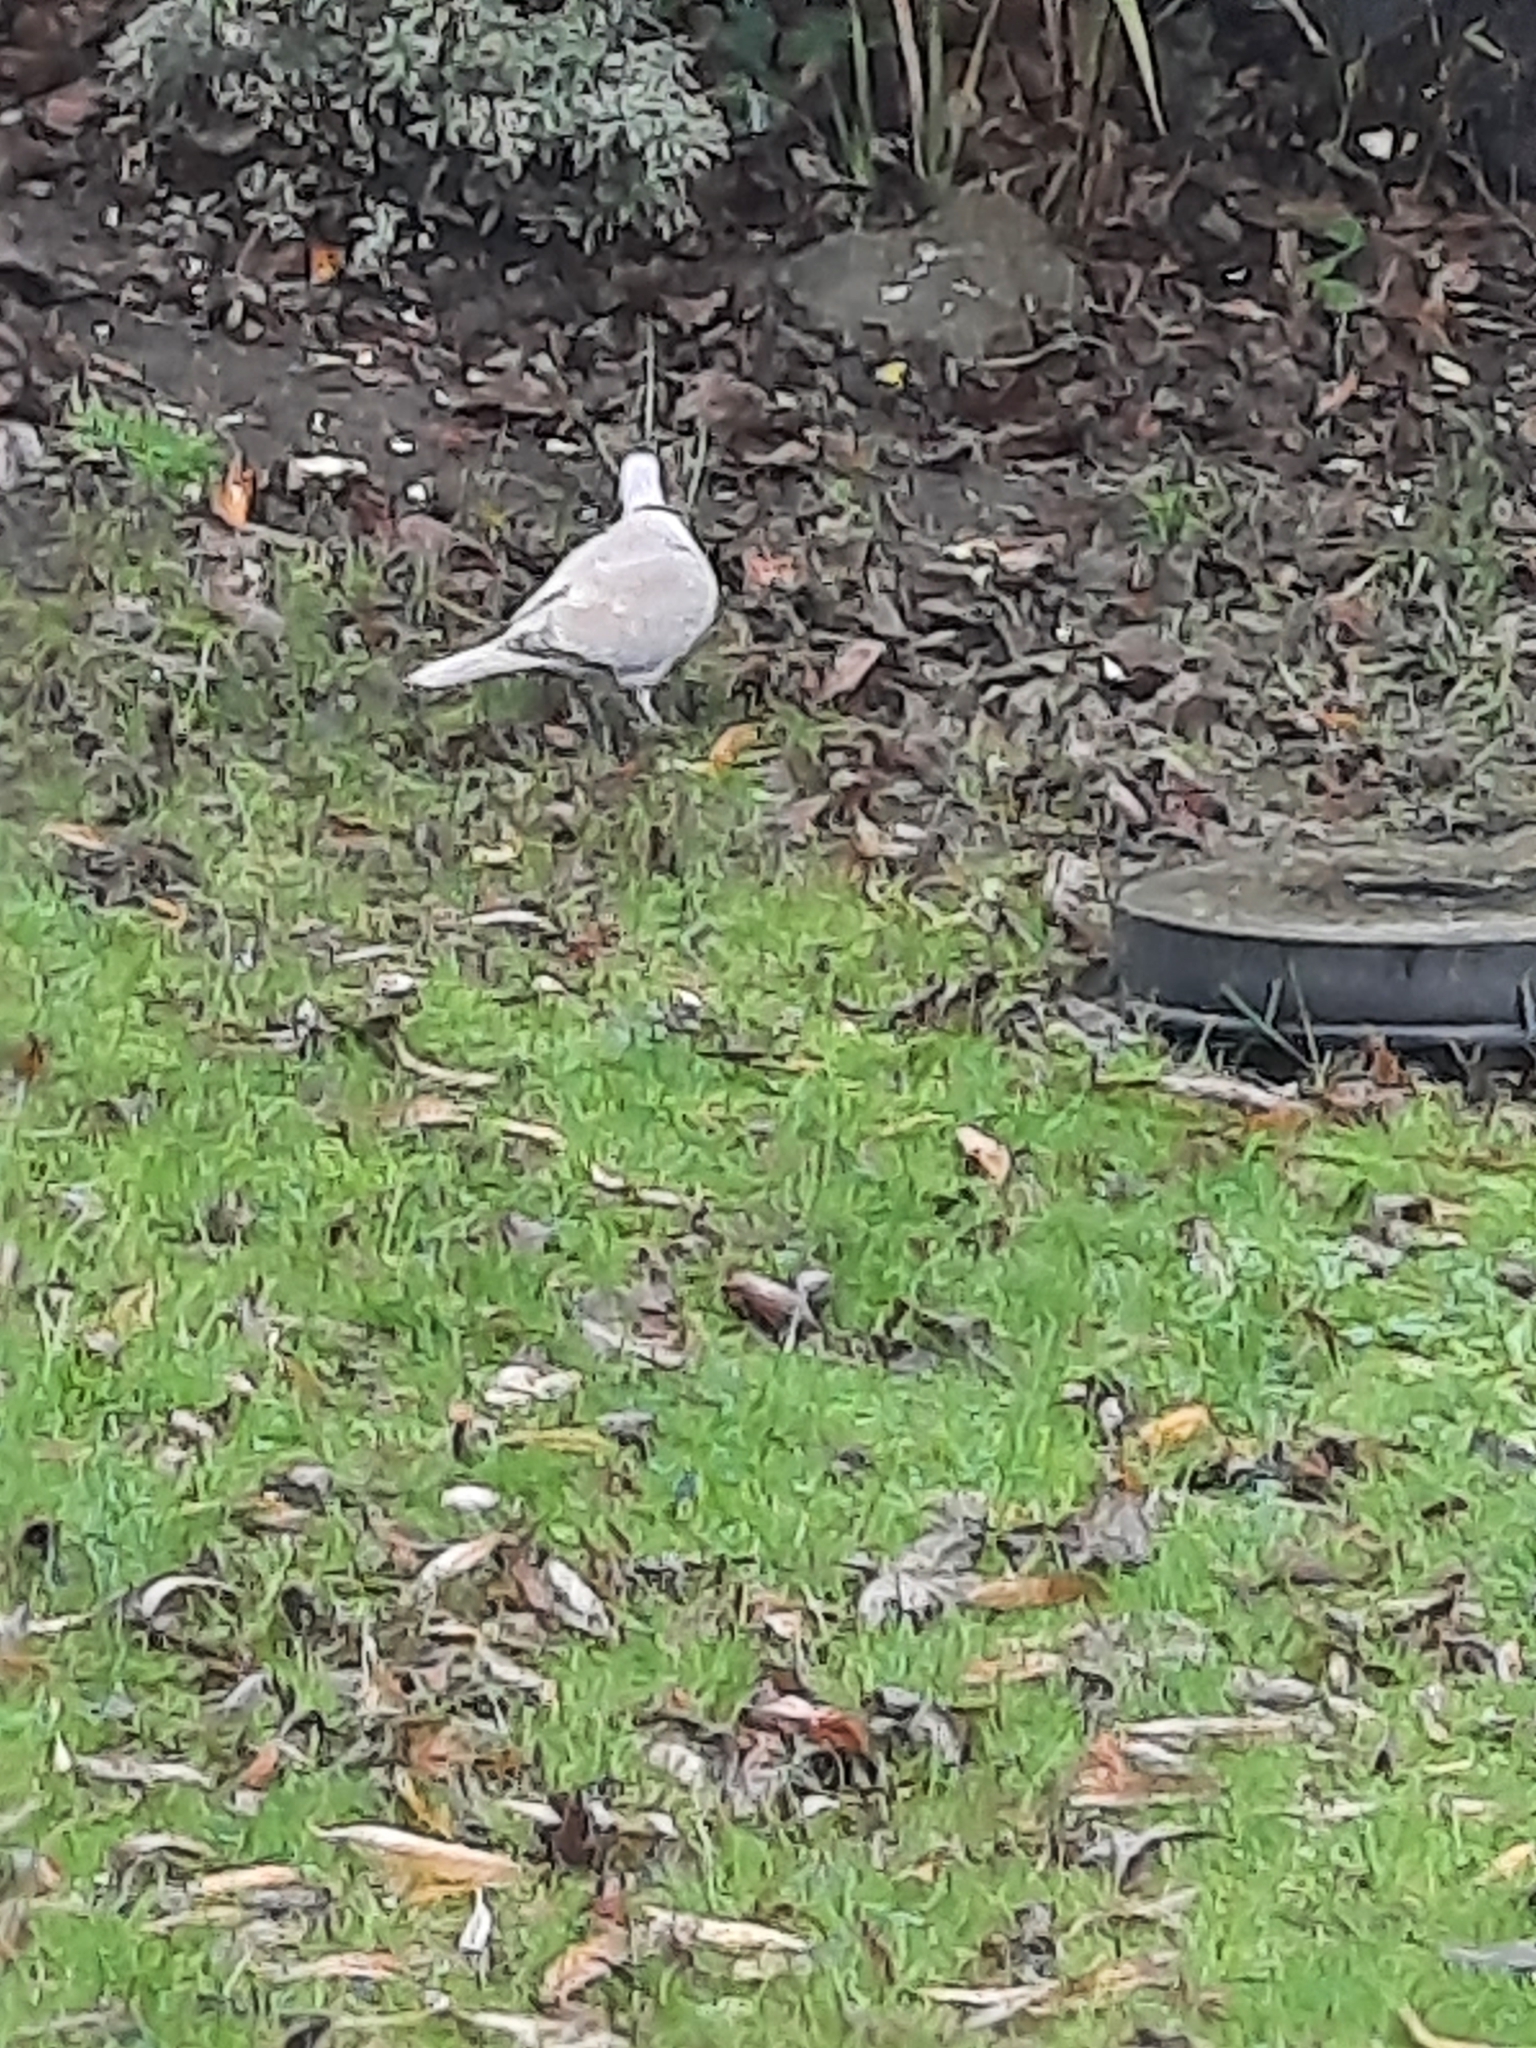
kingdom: Animalia
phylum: Chordata
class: Aves
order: Columbiformes
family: Columbidae
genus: Streptopelia
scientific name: Streptopelia decaocto
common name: Eurasian collared dove
